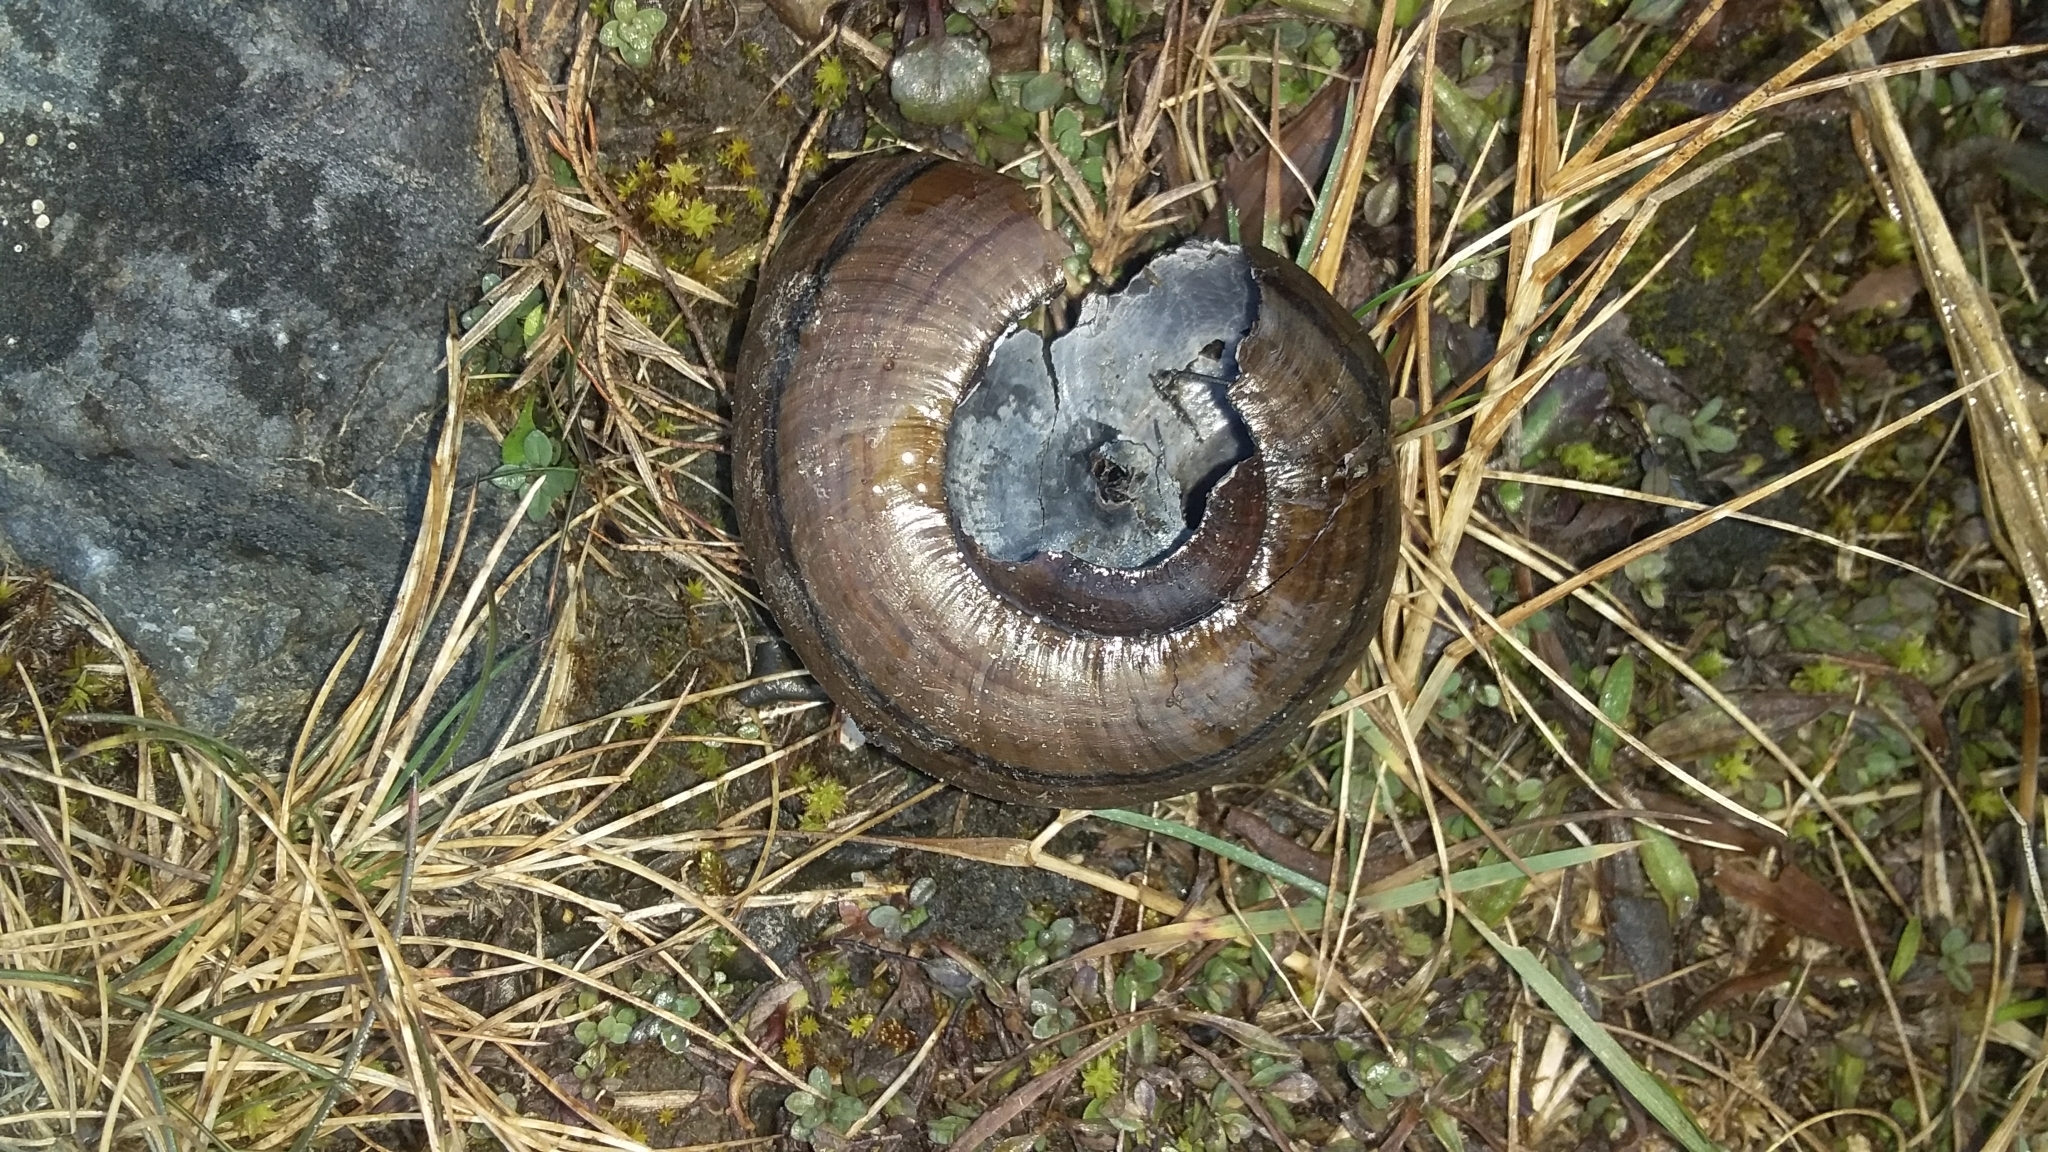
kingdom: Animalia
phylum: Mollusca
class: Gastropoda
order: Stylommatophora
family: Rhytididae
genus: Powelliphanta
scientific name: Powelliphanta hochstetteri
